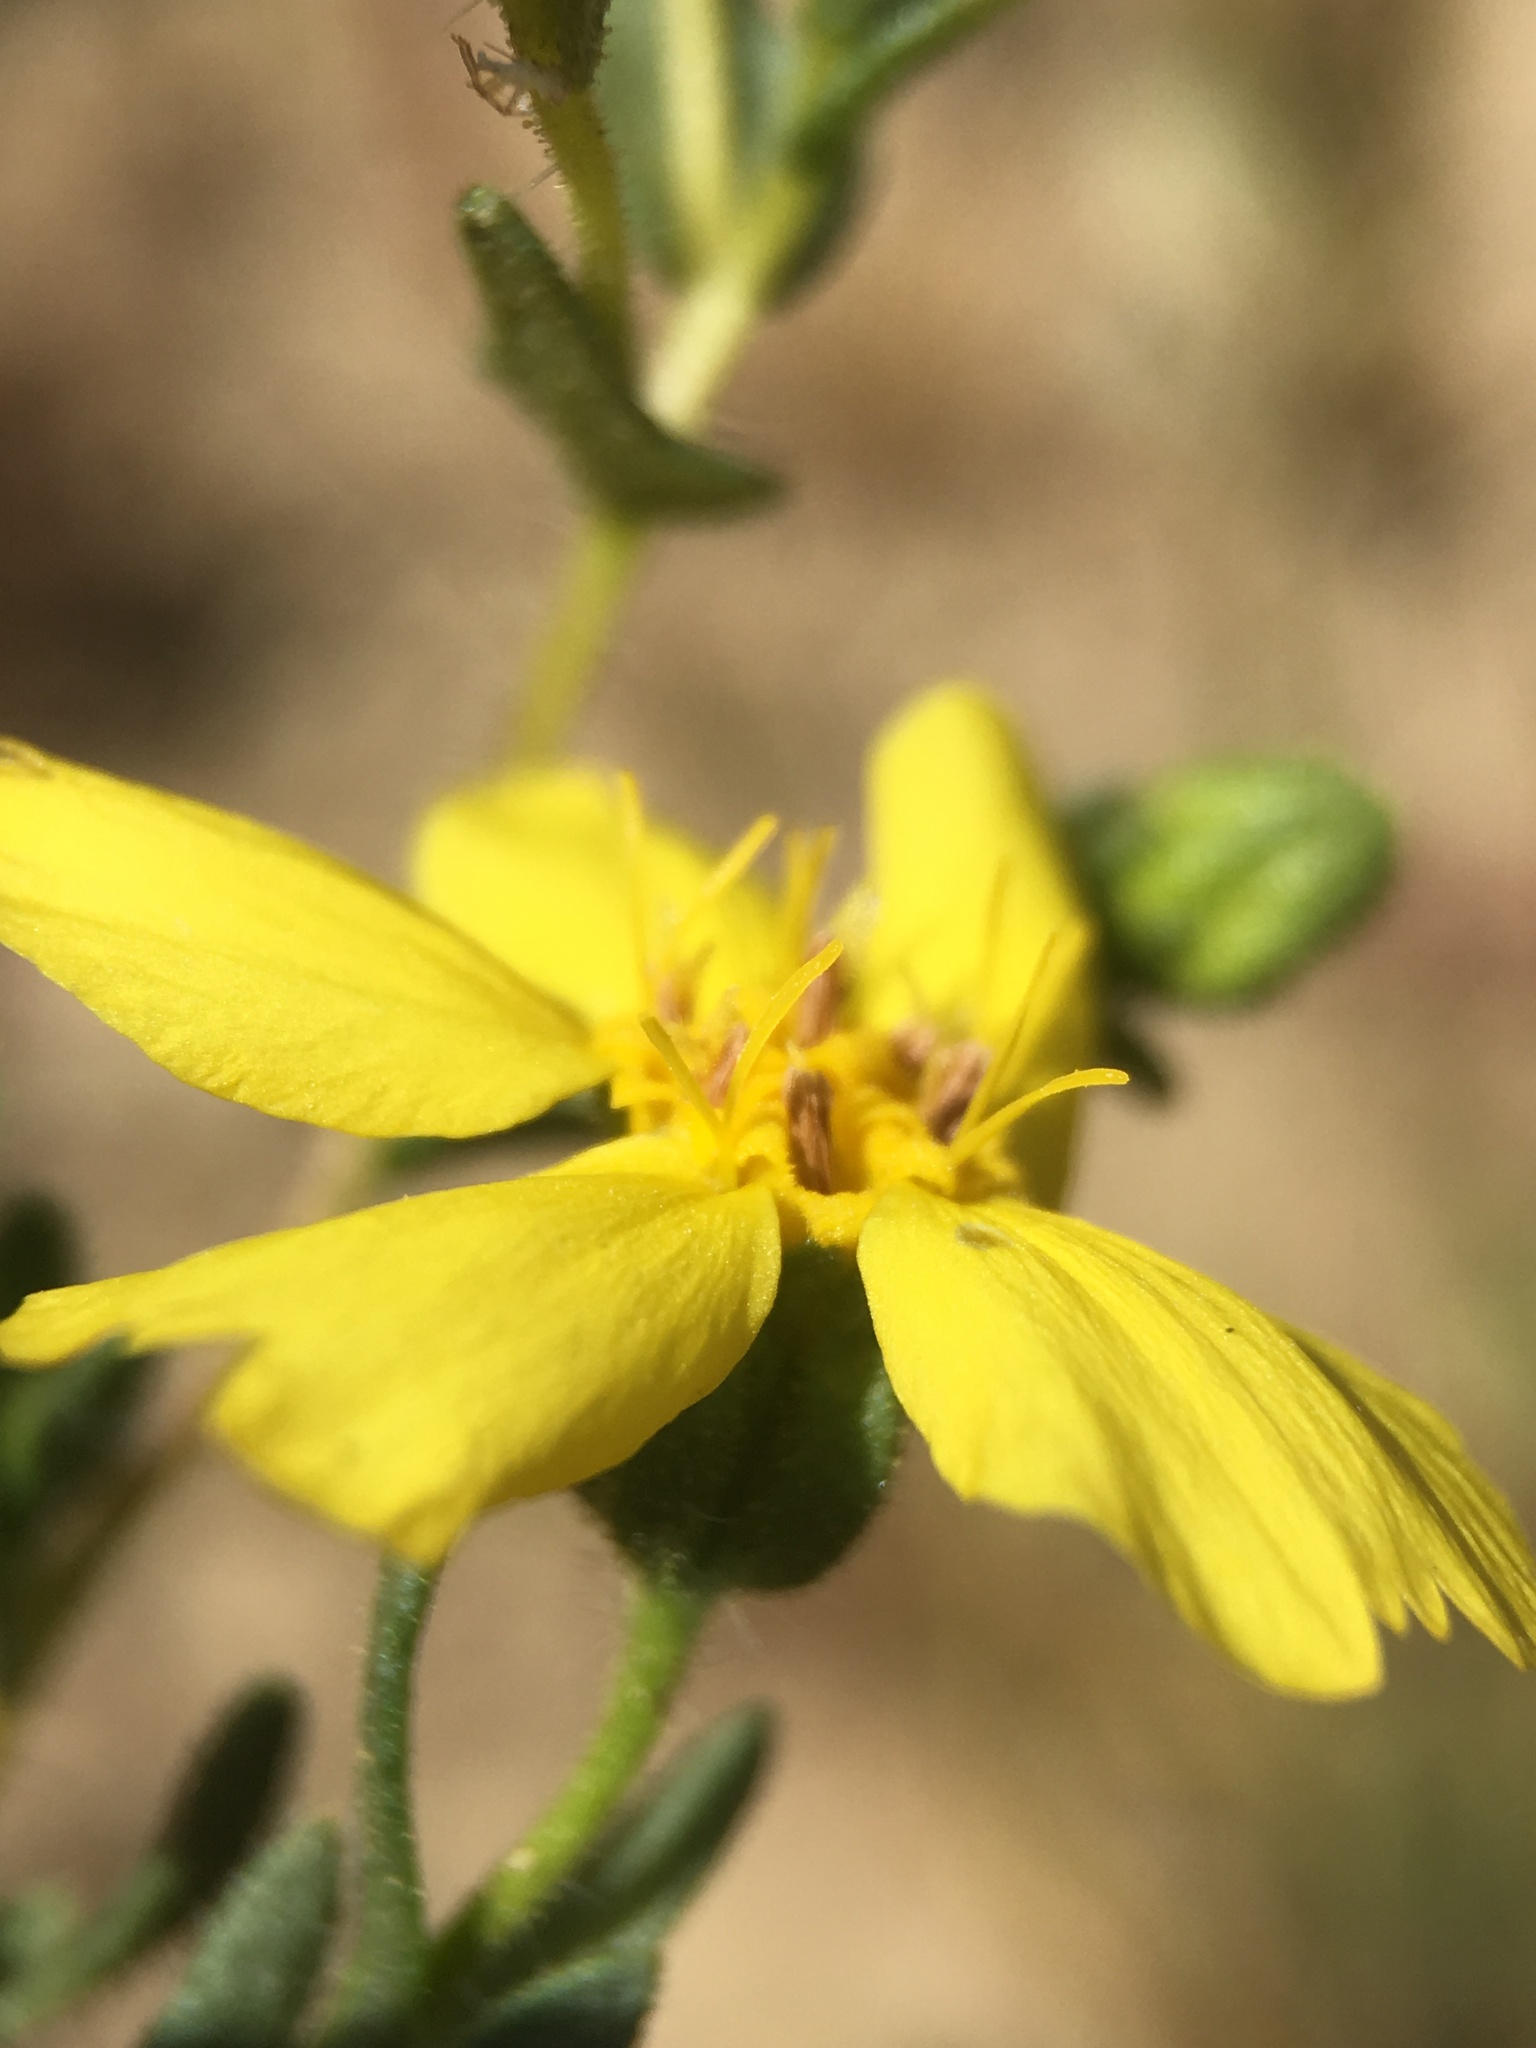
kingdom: Plantae
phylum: Tracheophyta
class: Magnoliopsida
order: Asterales
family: Asteraceae
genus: Deinandra
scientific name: Deinandra kelloggii
